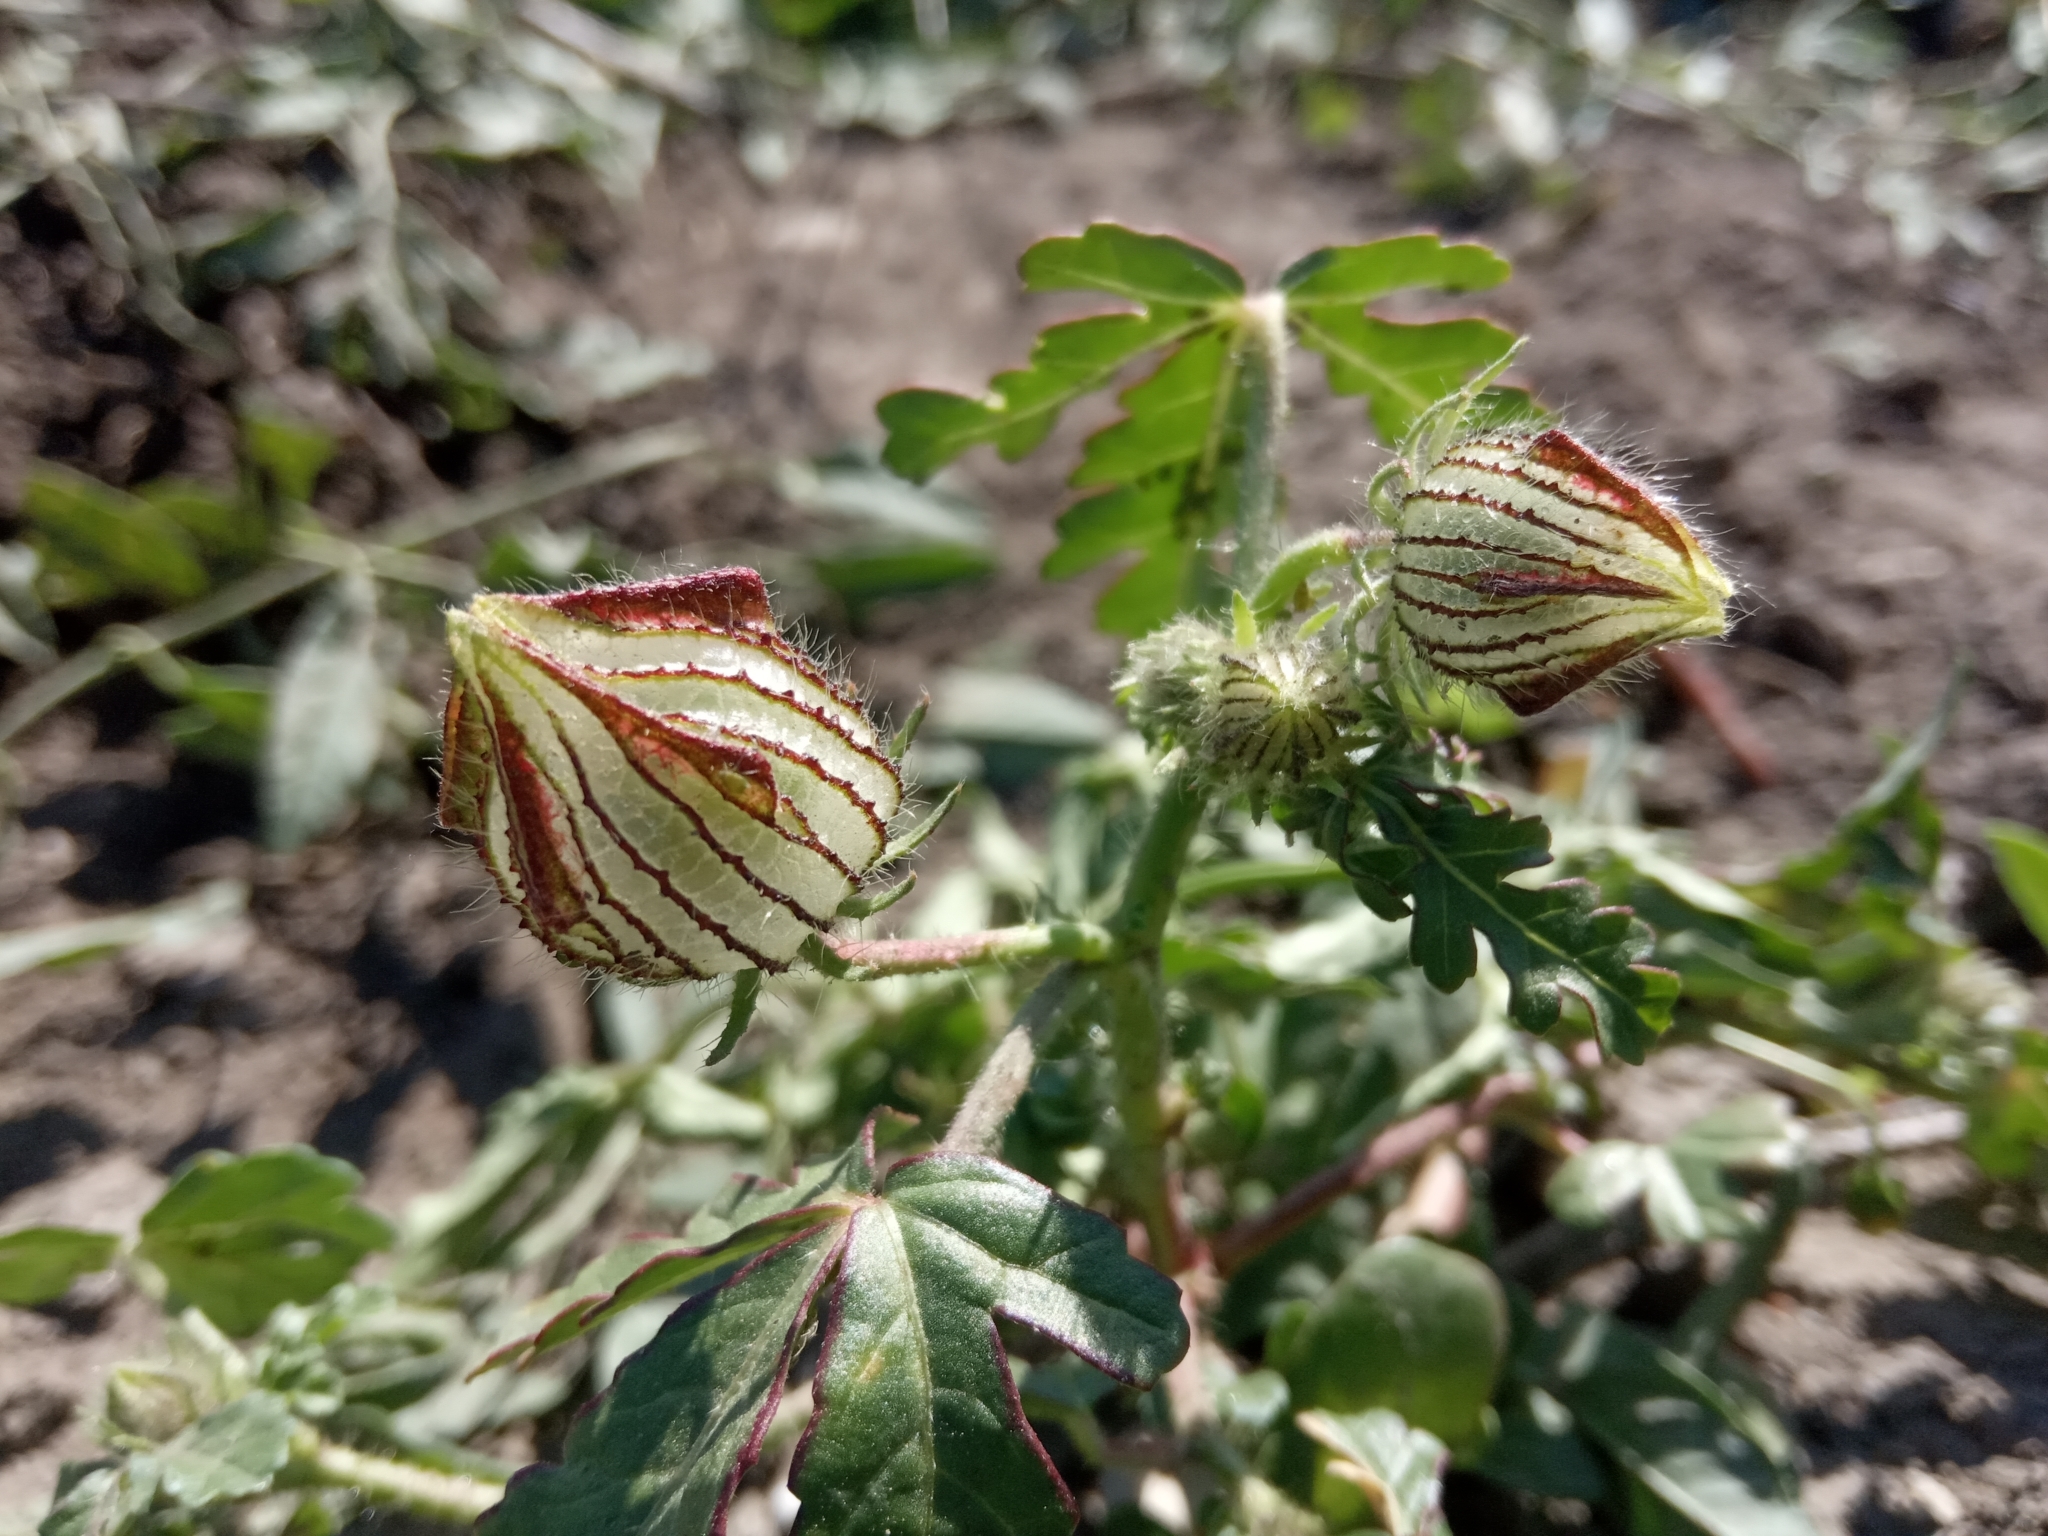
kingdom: Plantae
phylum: Tracheophyta
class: Magnoliopsida
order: Malvales
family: Malvaceae
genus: Hibiscus
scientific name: Hibiscus trionum
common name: Bladder ketmia
